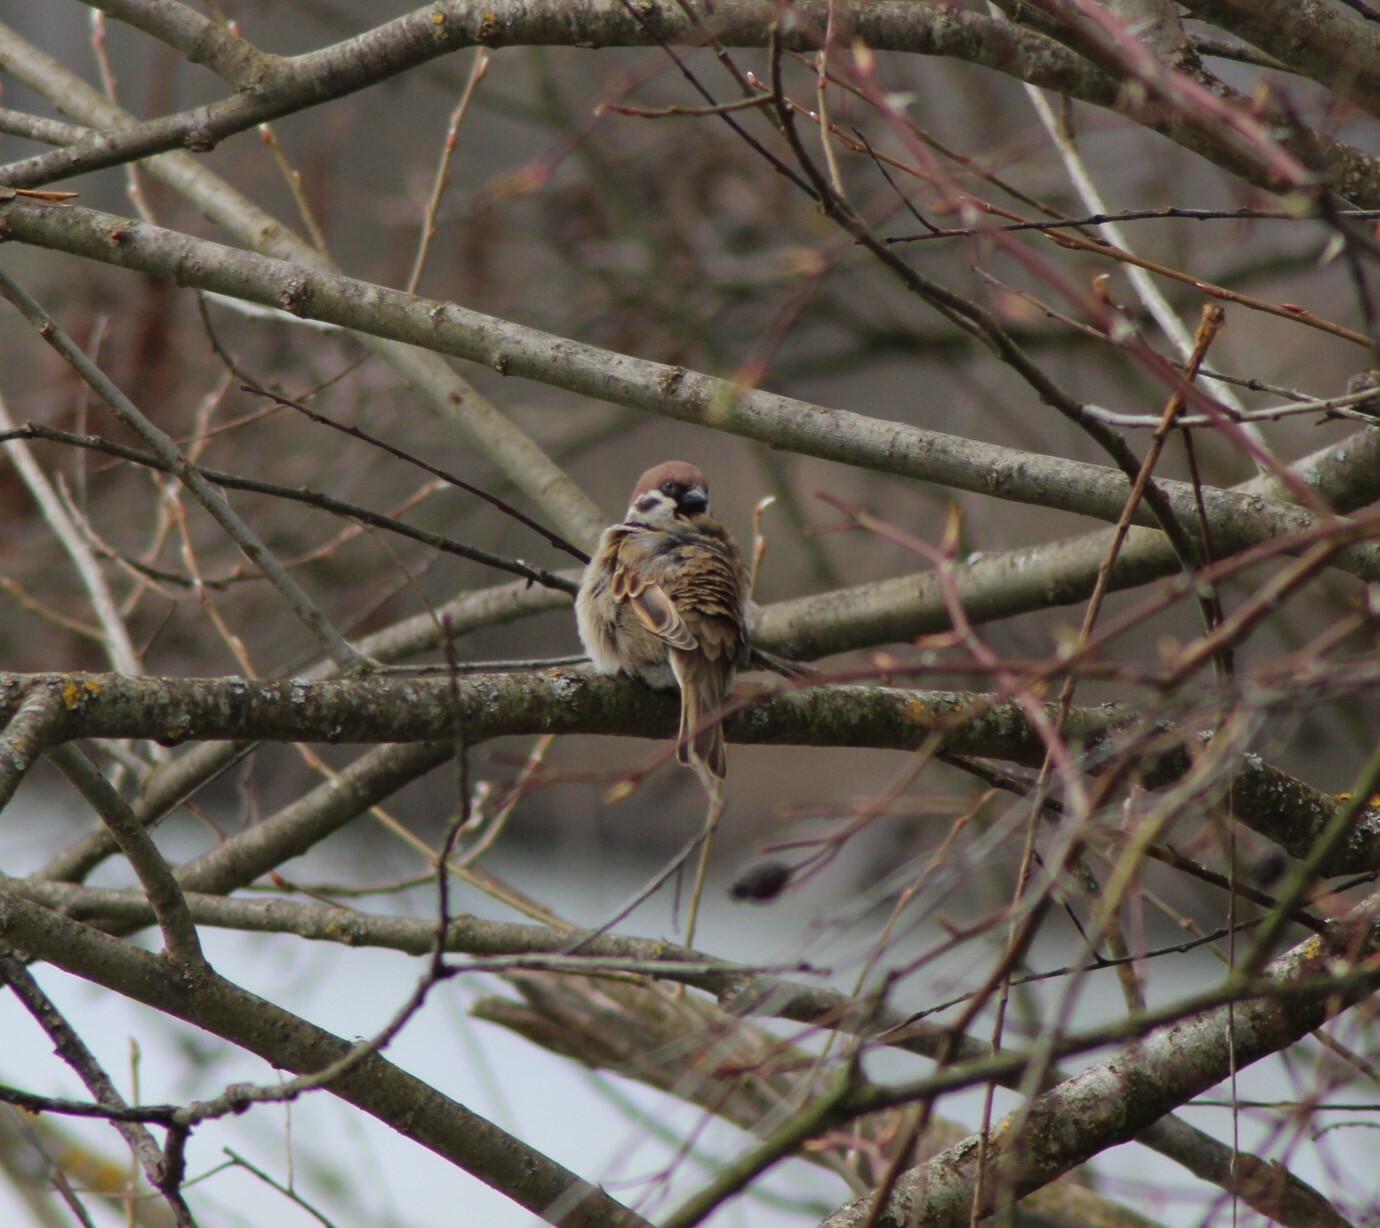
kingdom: Animalia
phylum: Chordata
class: Aves
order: Passeriformes
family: Passeridae
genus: Passer
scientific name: Passer montanus
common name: Eurasian tree sparrow
